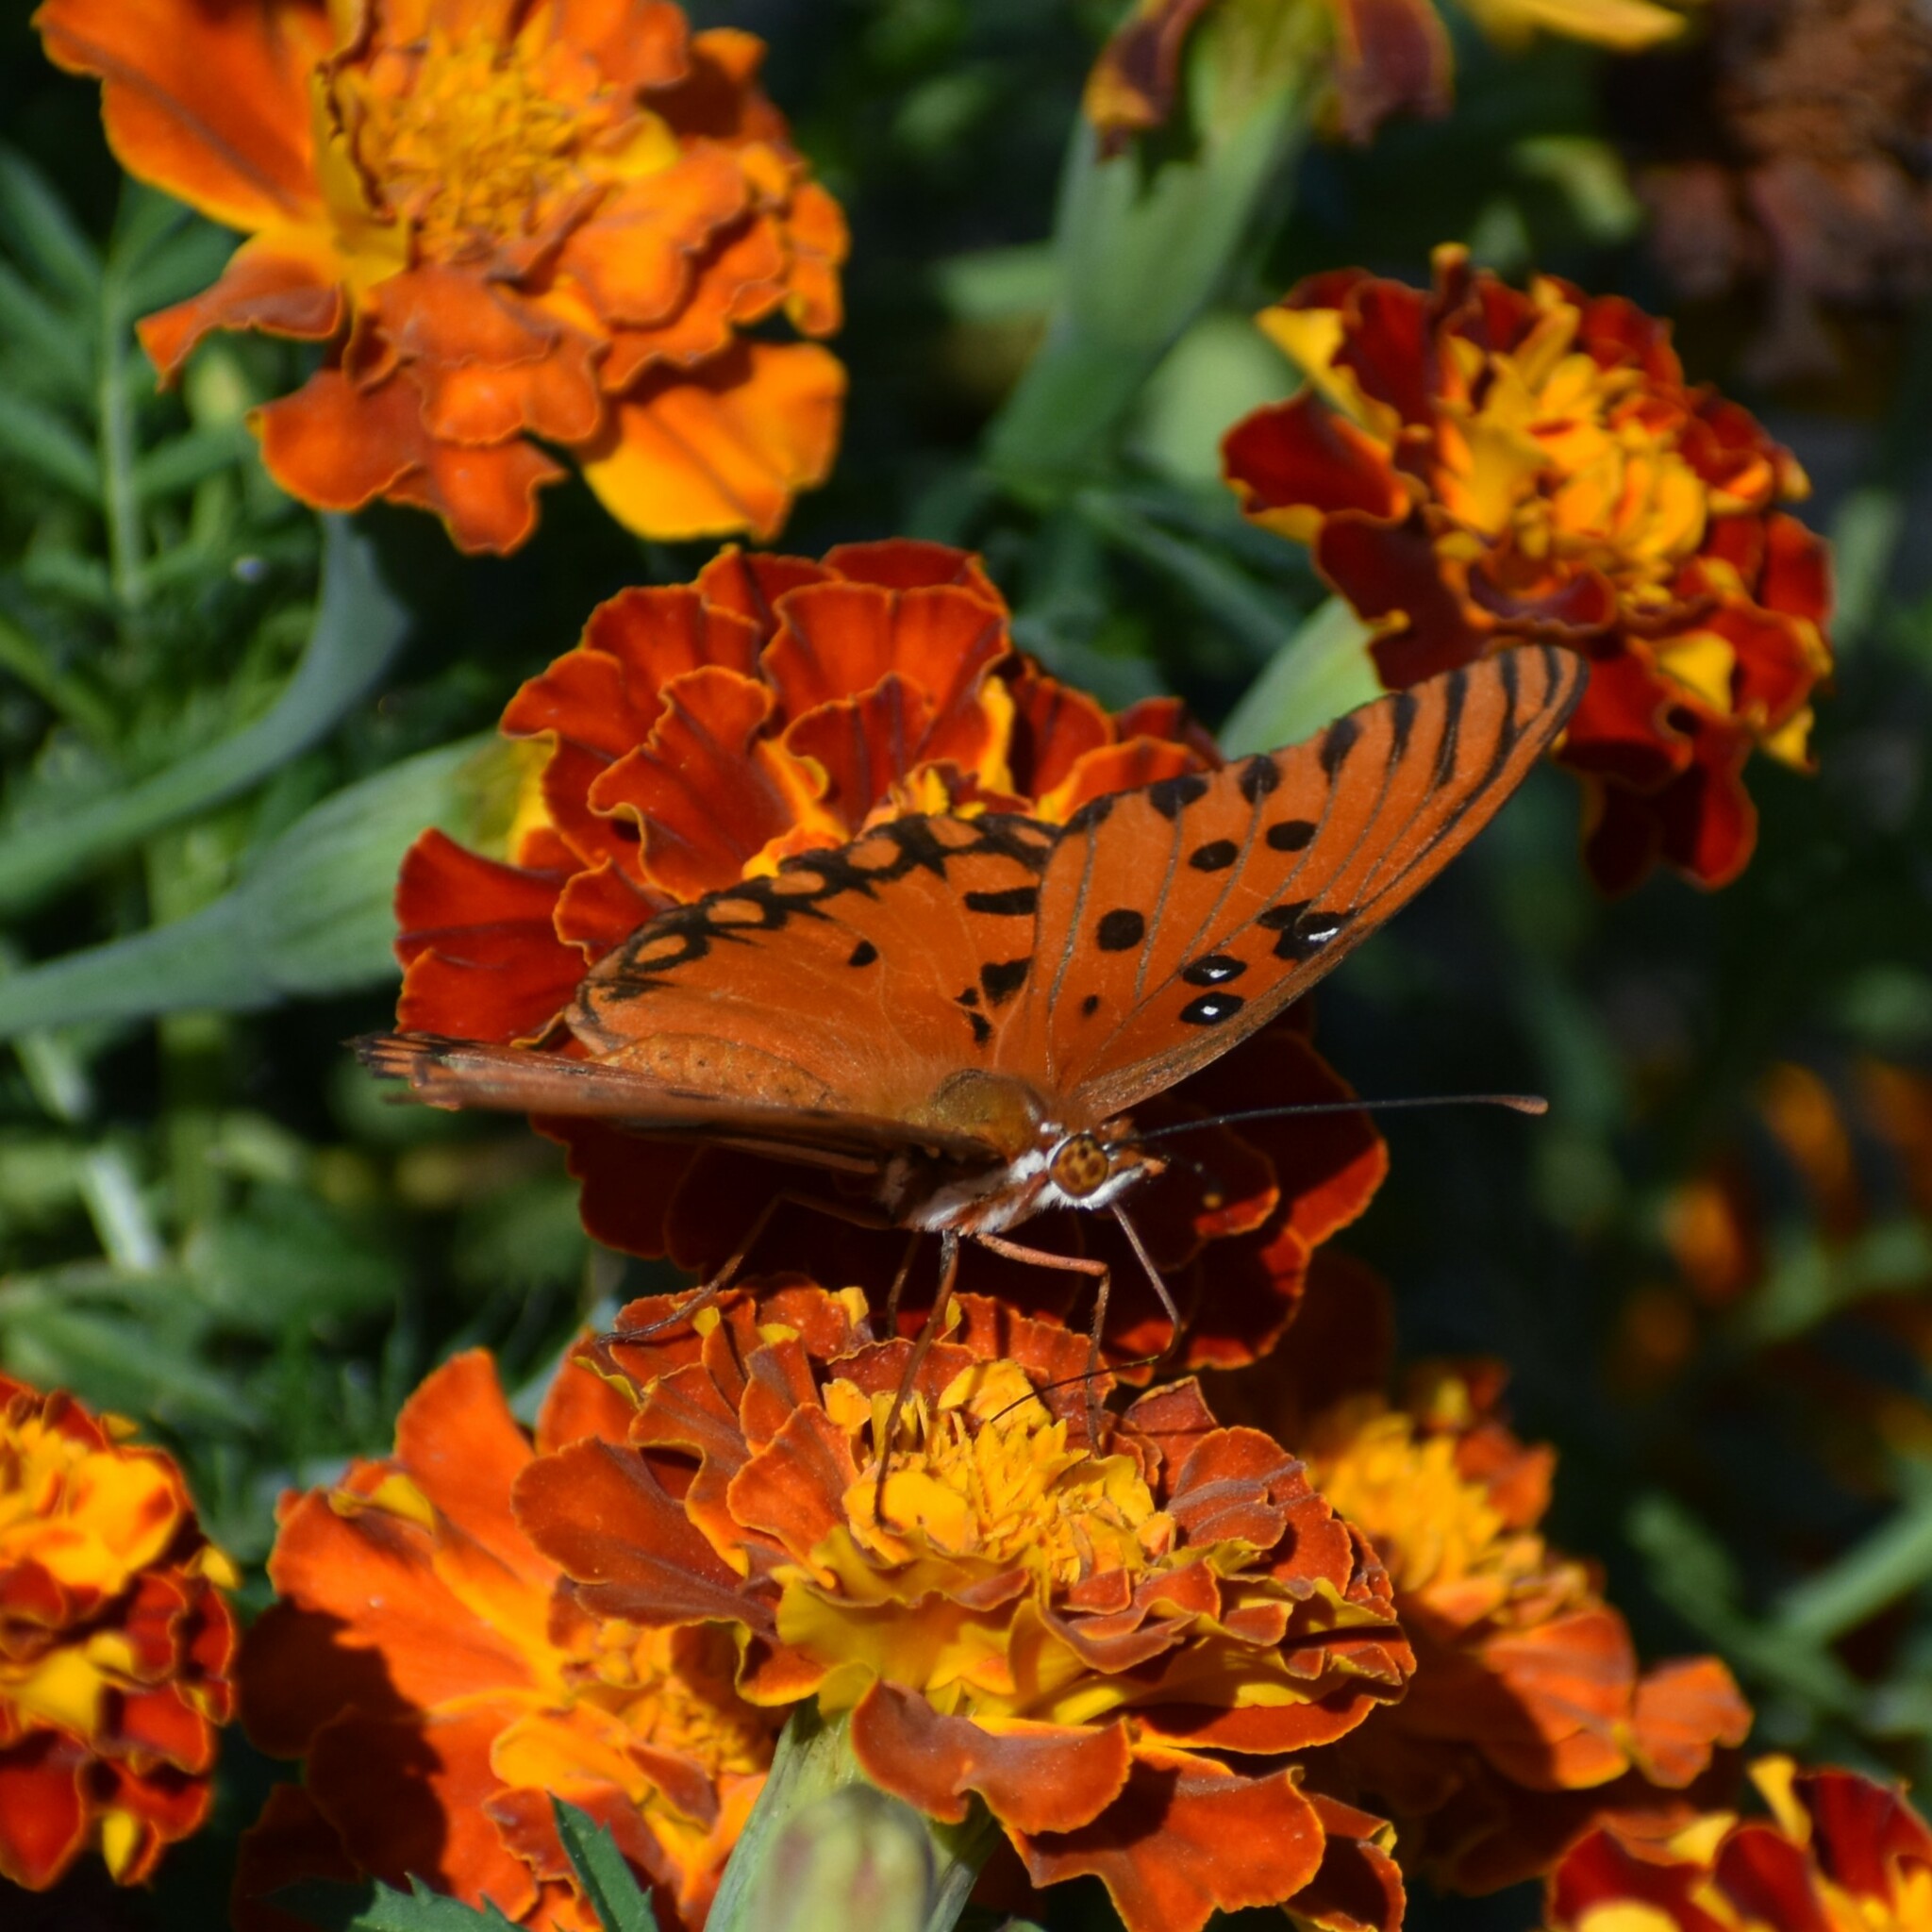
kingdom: Animalia
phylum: Arthropoda
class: Insecta
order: Lepidoptera
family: Nymphalidae
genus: Dione
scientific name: Dione vanillae
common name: Gulf fritillary
